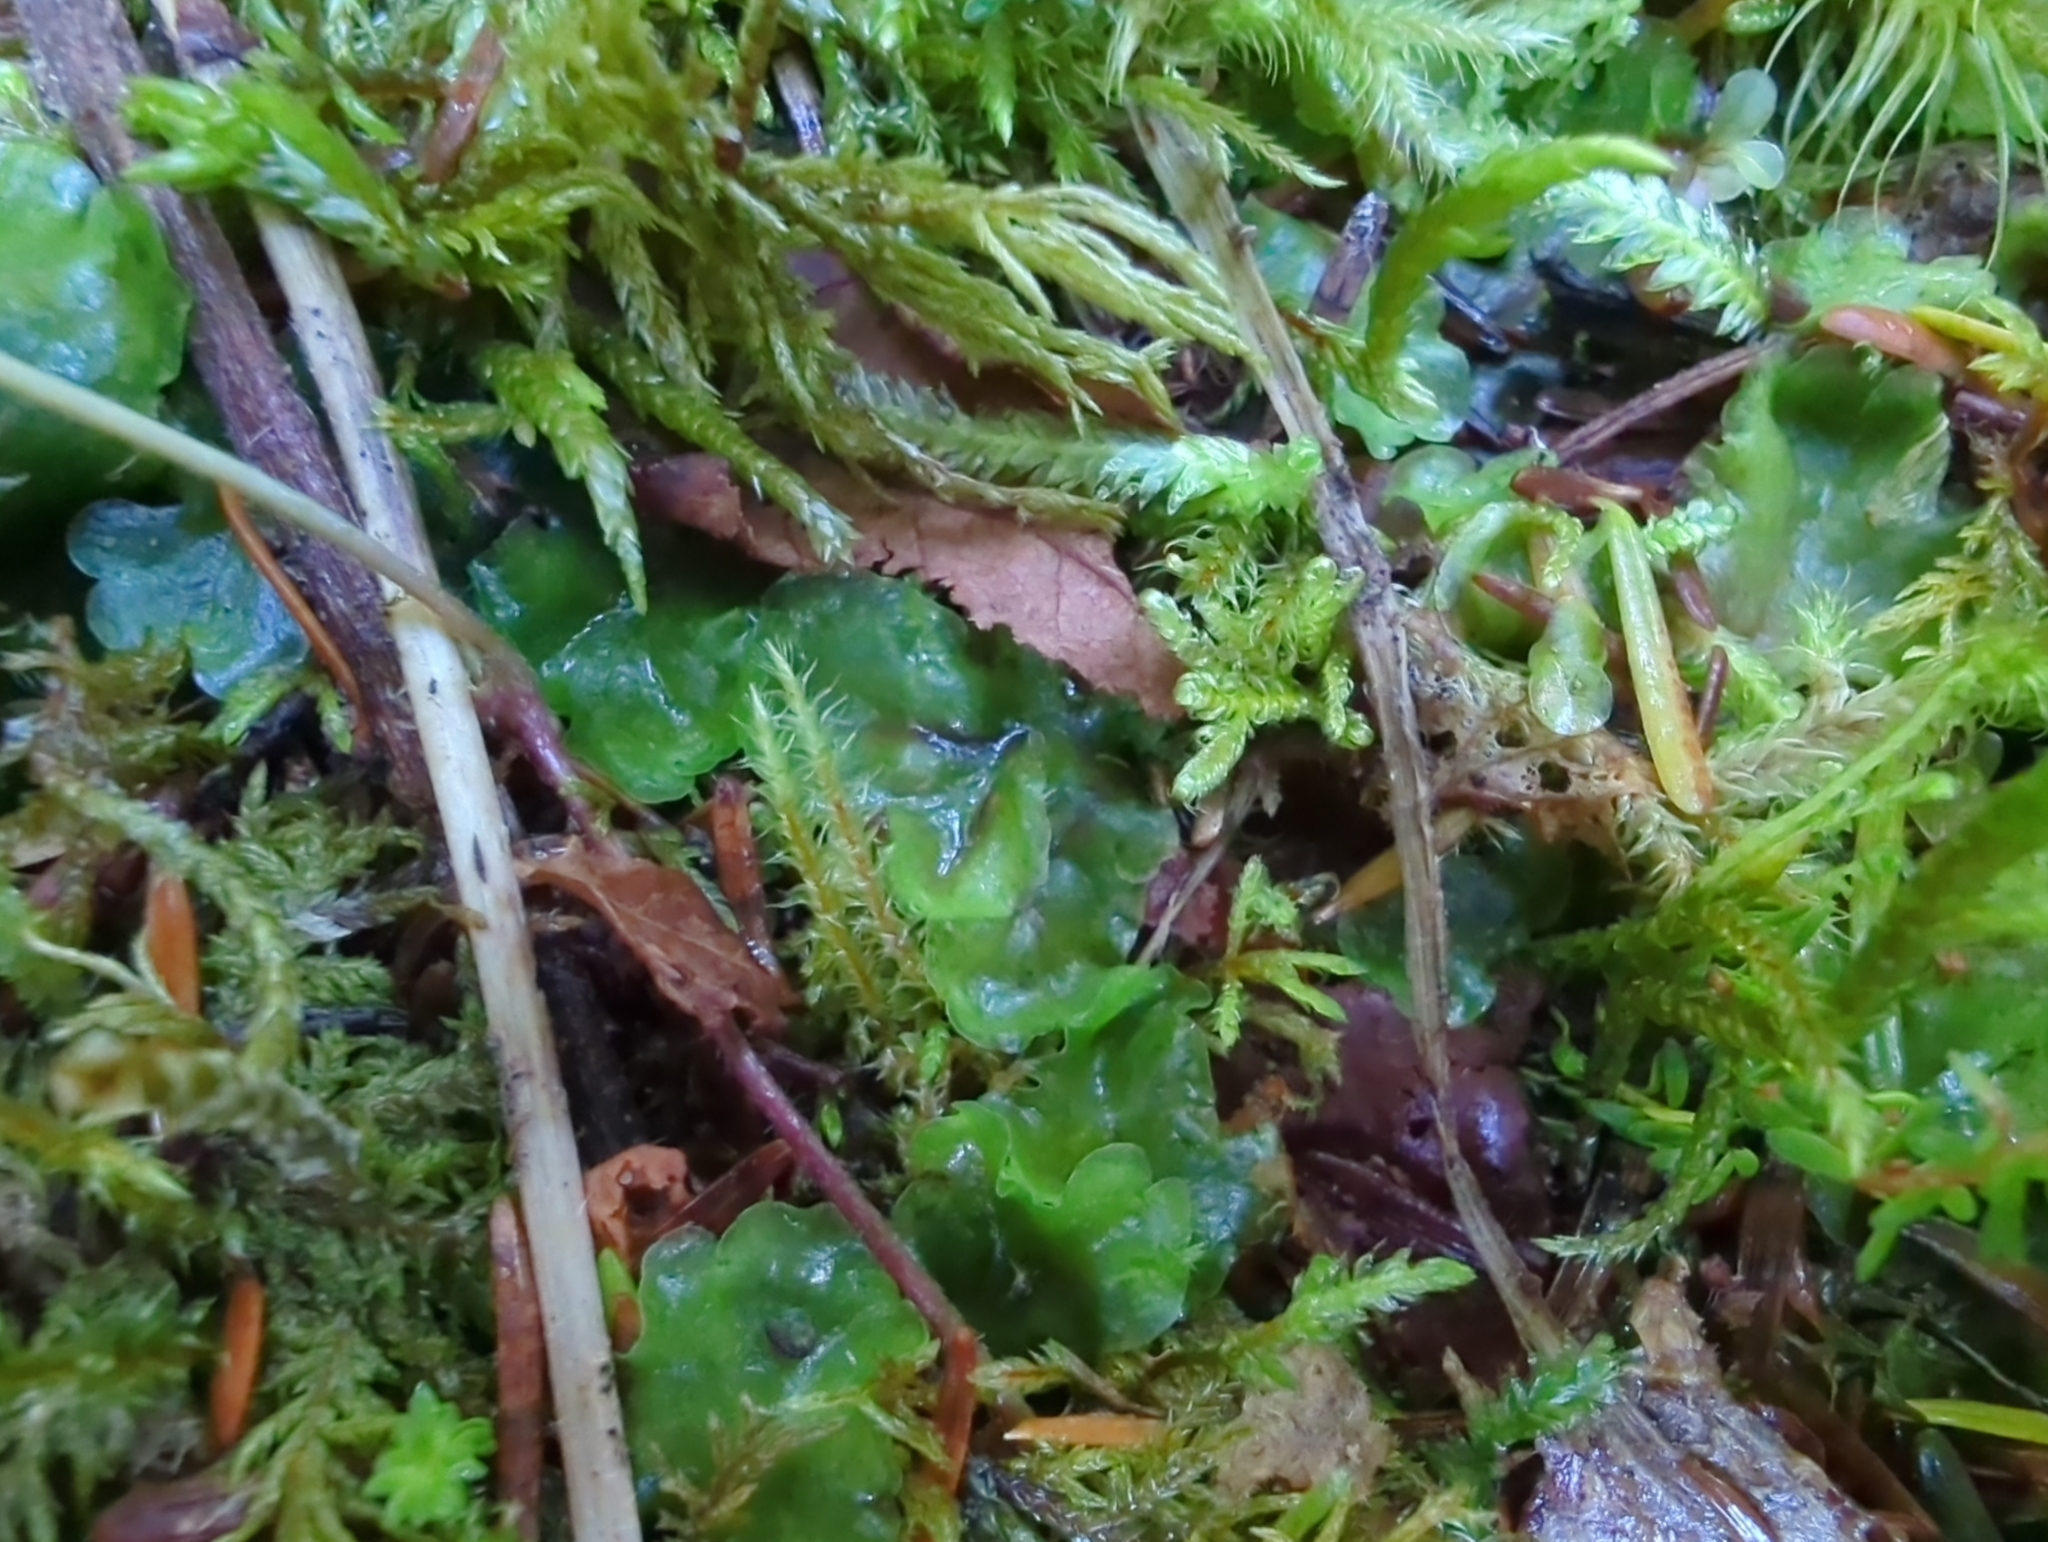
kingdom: Plantae
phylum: Marchantiophyta
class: Jungermanniopsida
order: Pelliales
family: Pelliaceae
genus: Pellia
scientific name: Pellia neesiana
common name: Nees  pellia
